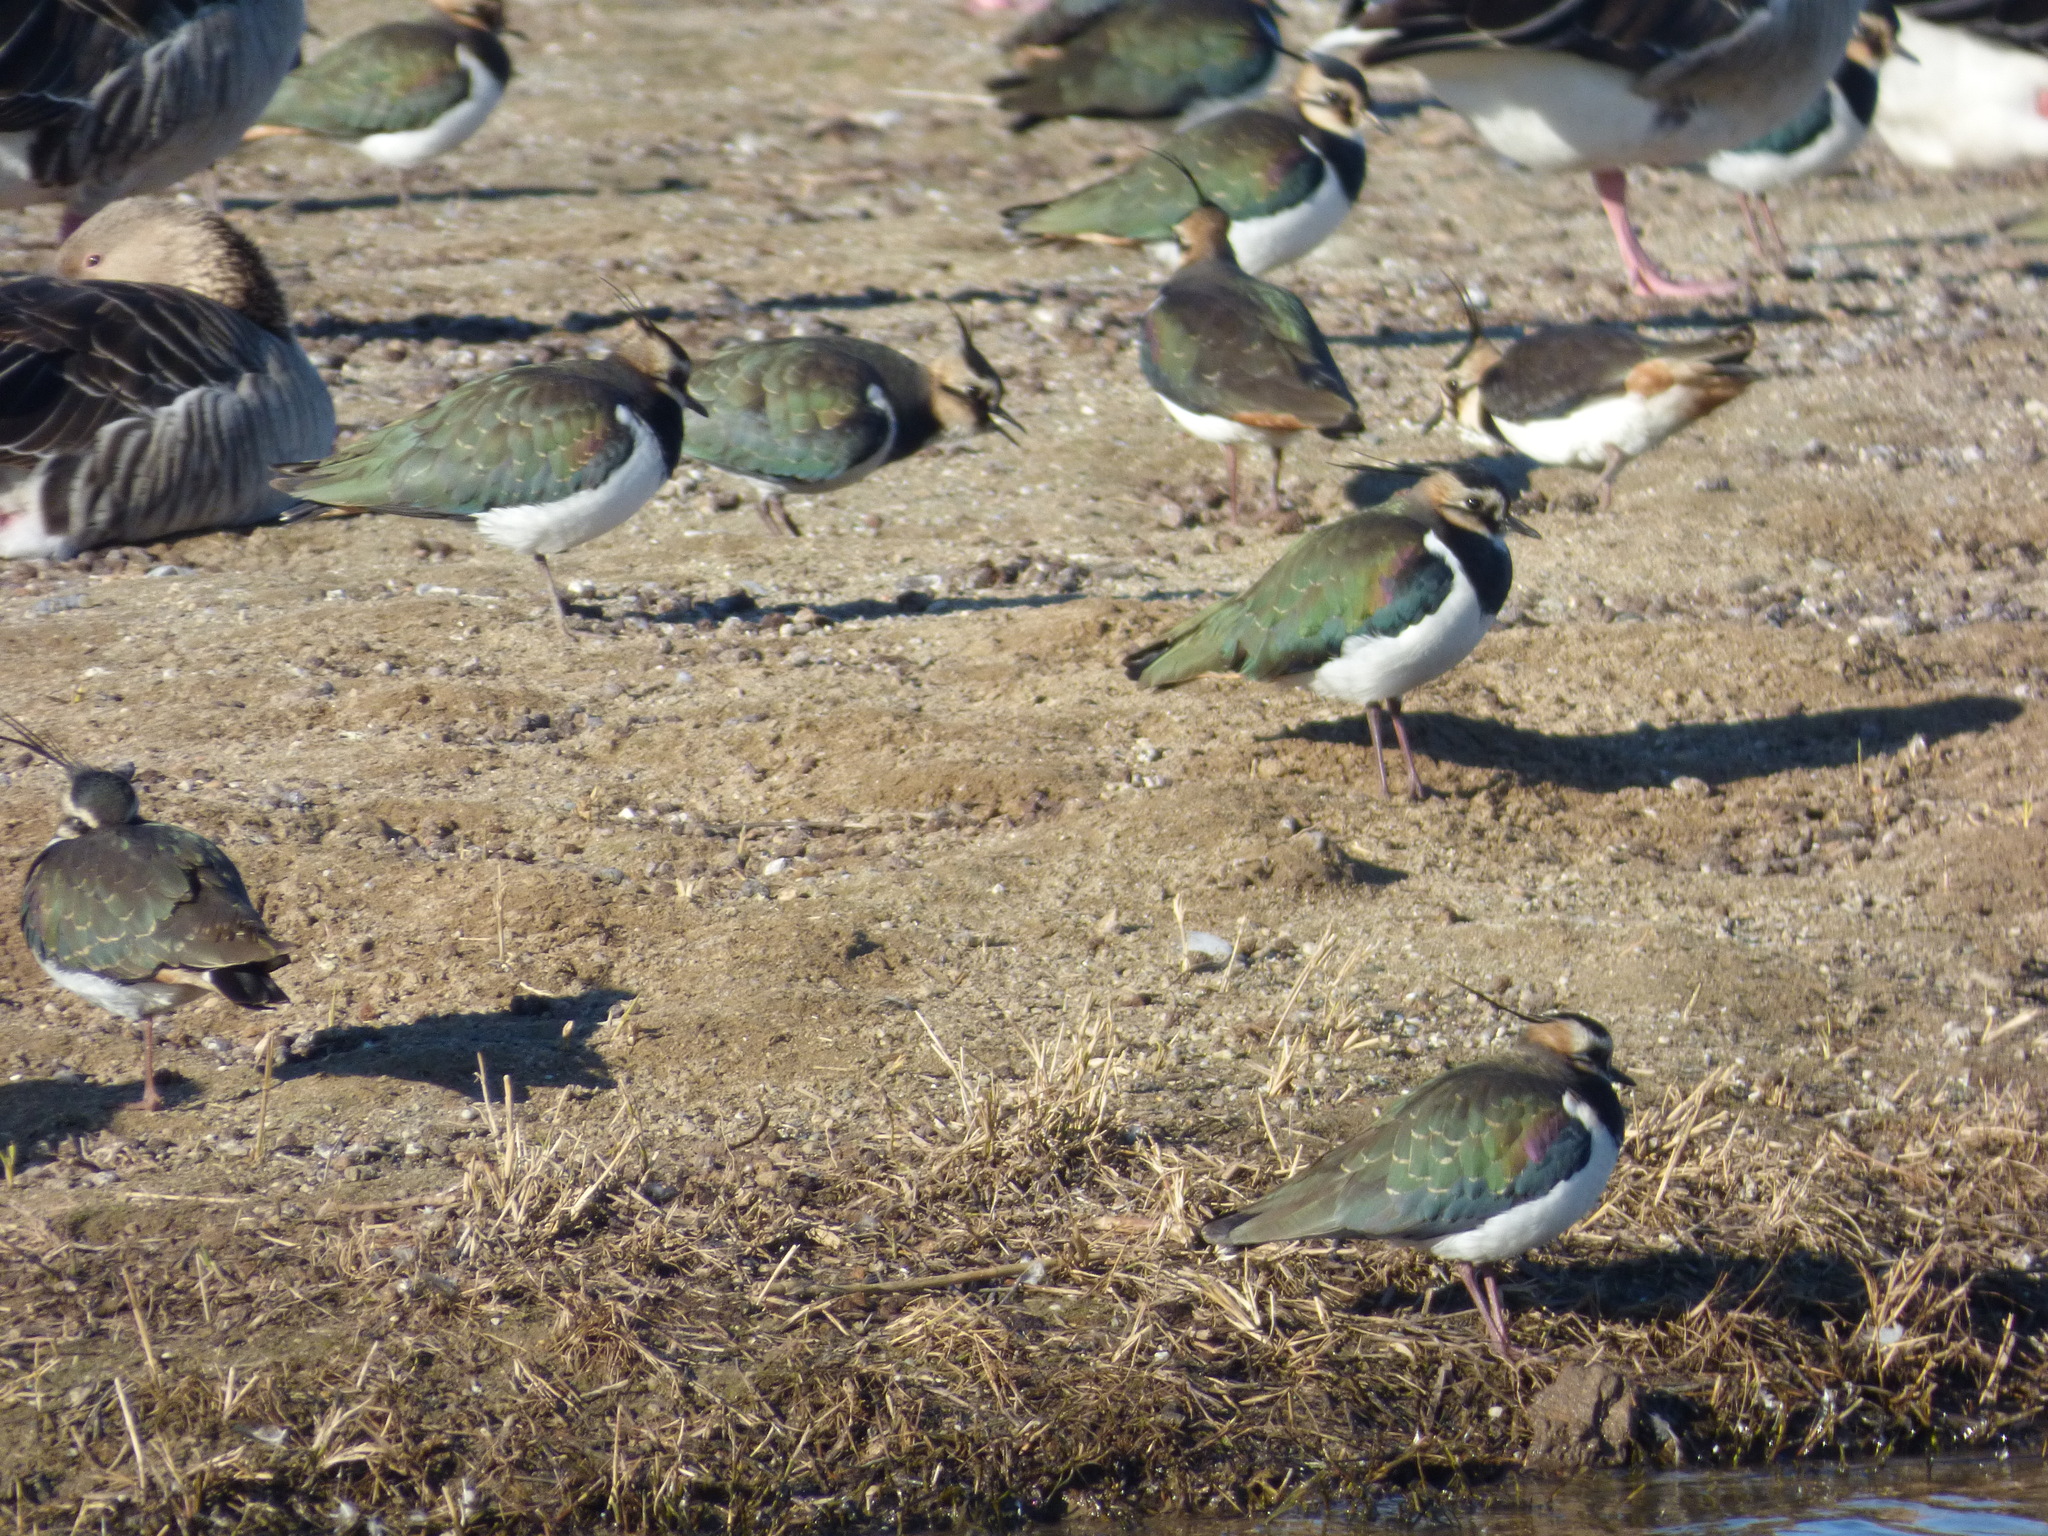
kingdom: Animalia
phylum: Chordata
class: Aves
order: Charadriiformes
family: Charadriidae
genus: Vanellus
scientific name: Vanellus vanellus
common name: Northern lapwing
